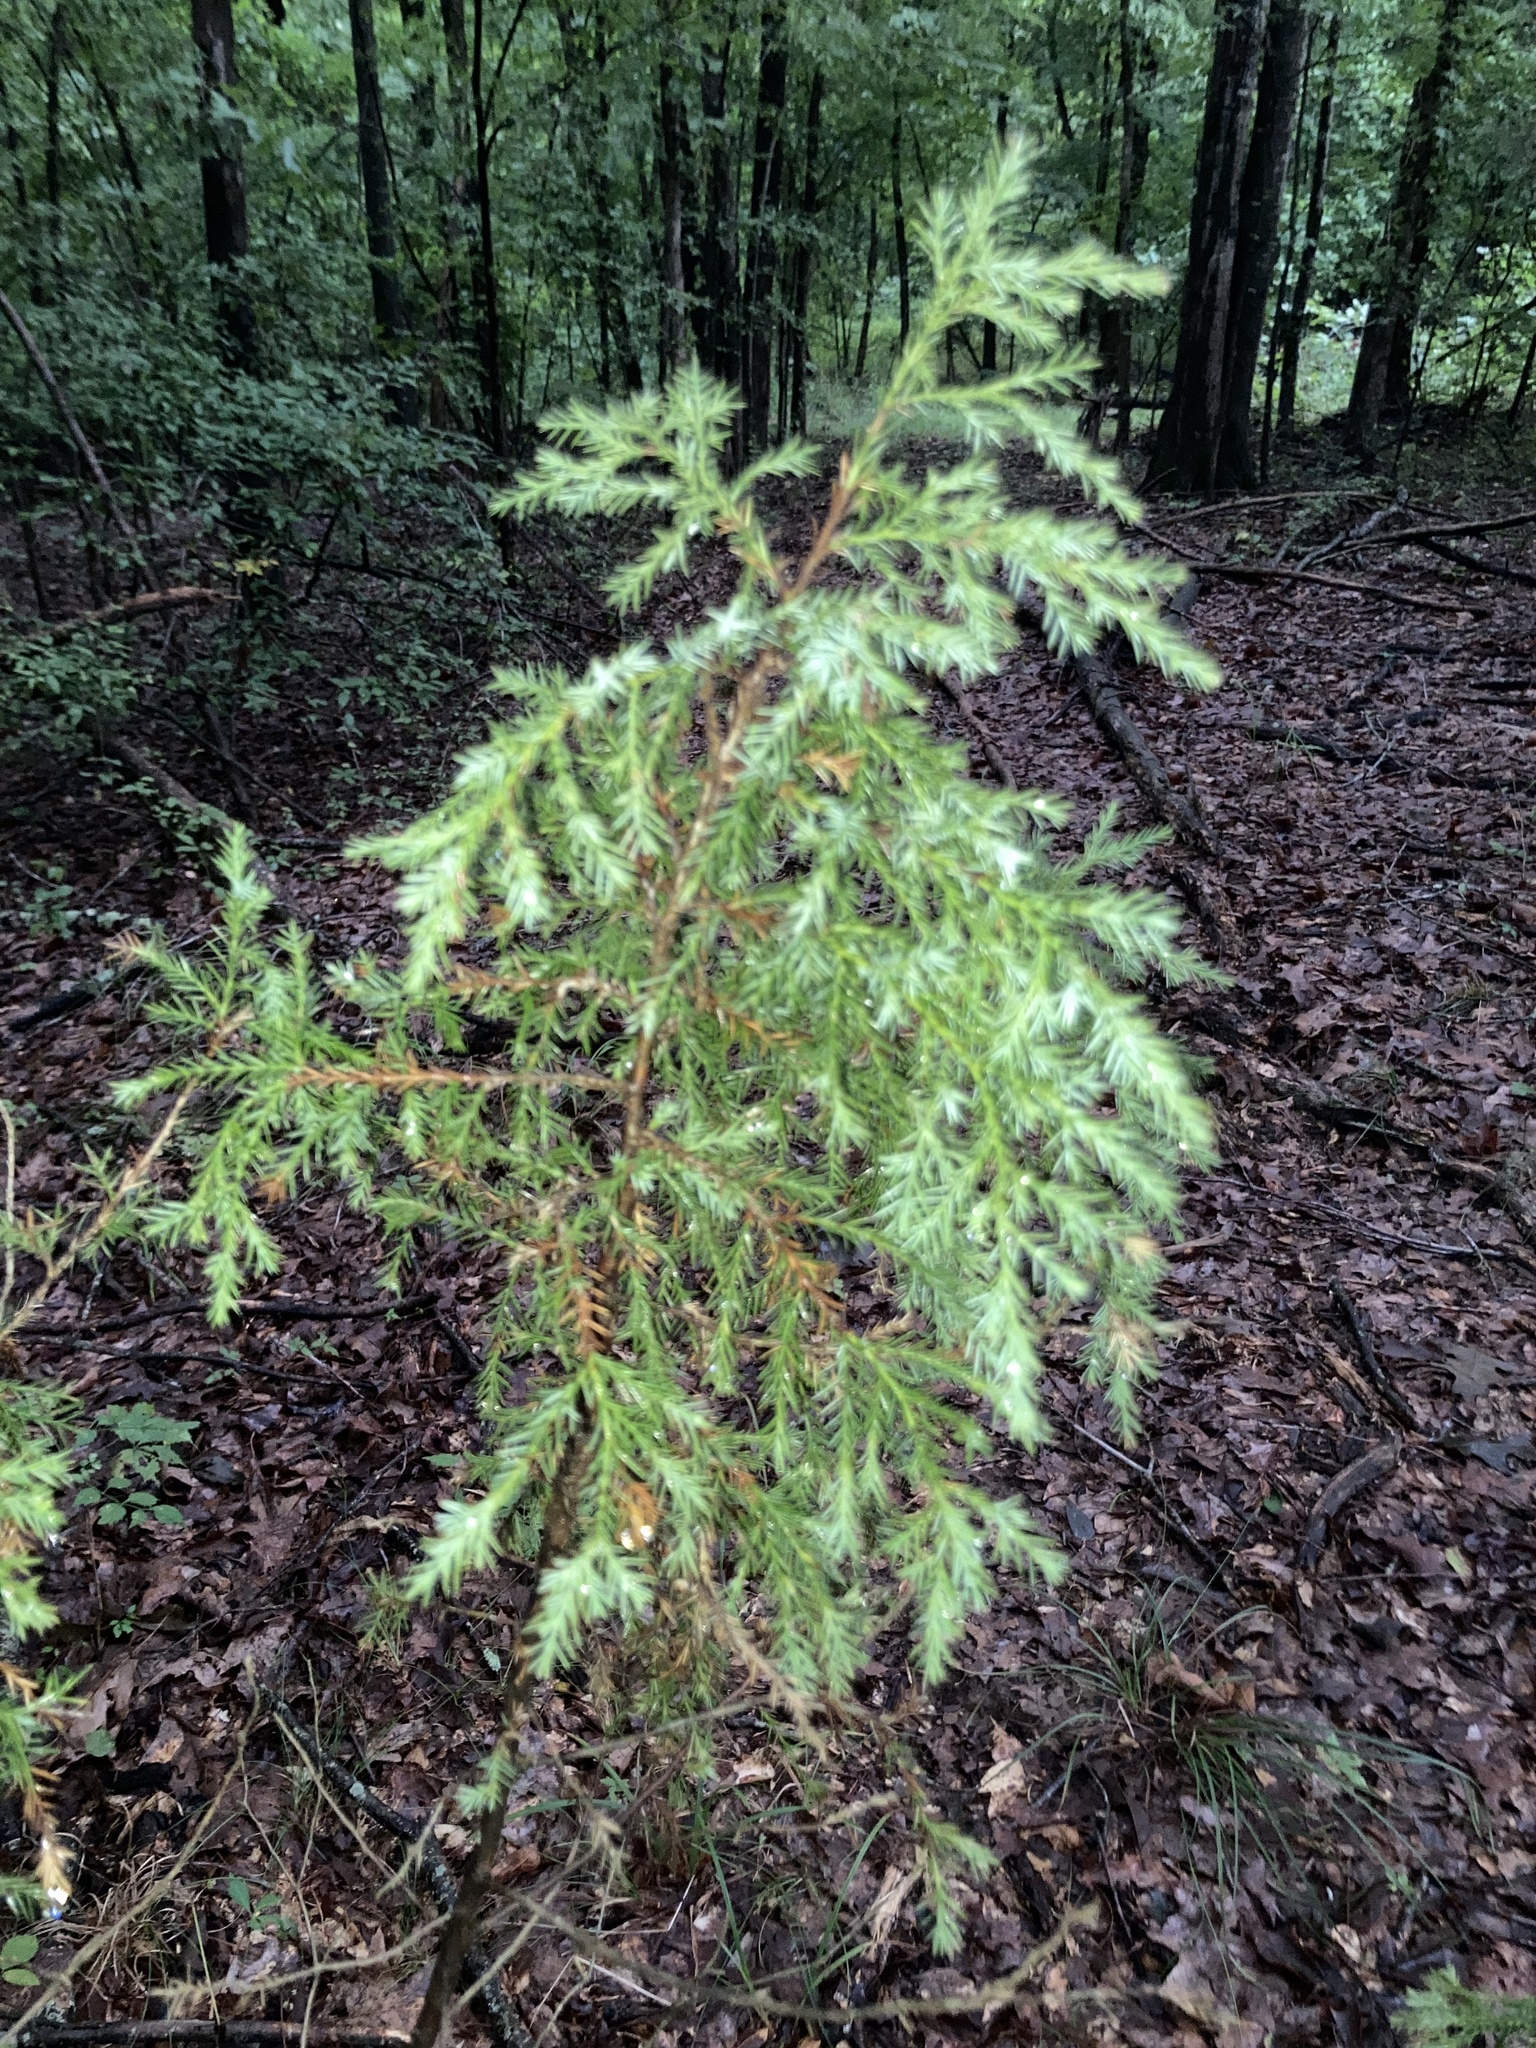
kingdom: Plantae
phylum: Tracheophyta
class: Pinopsida
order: Pinales
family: Cupressaceae
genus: Juniperus
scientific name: Juniperus virginiana
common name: Red juniper
